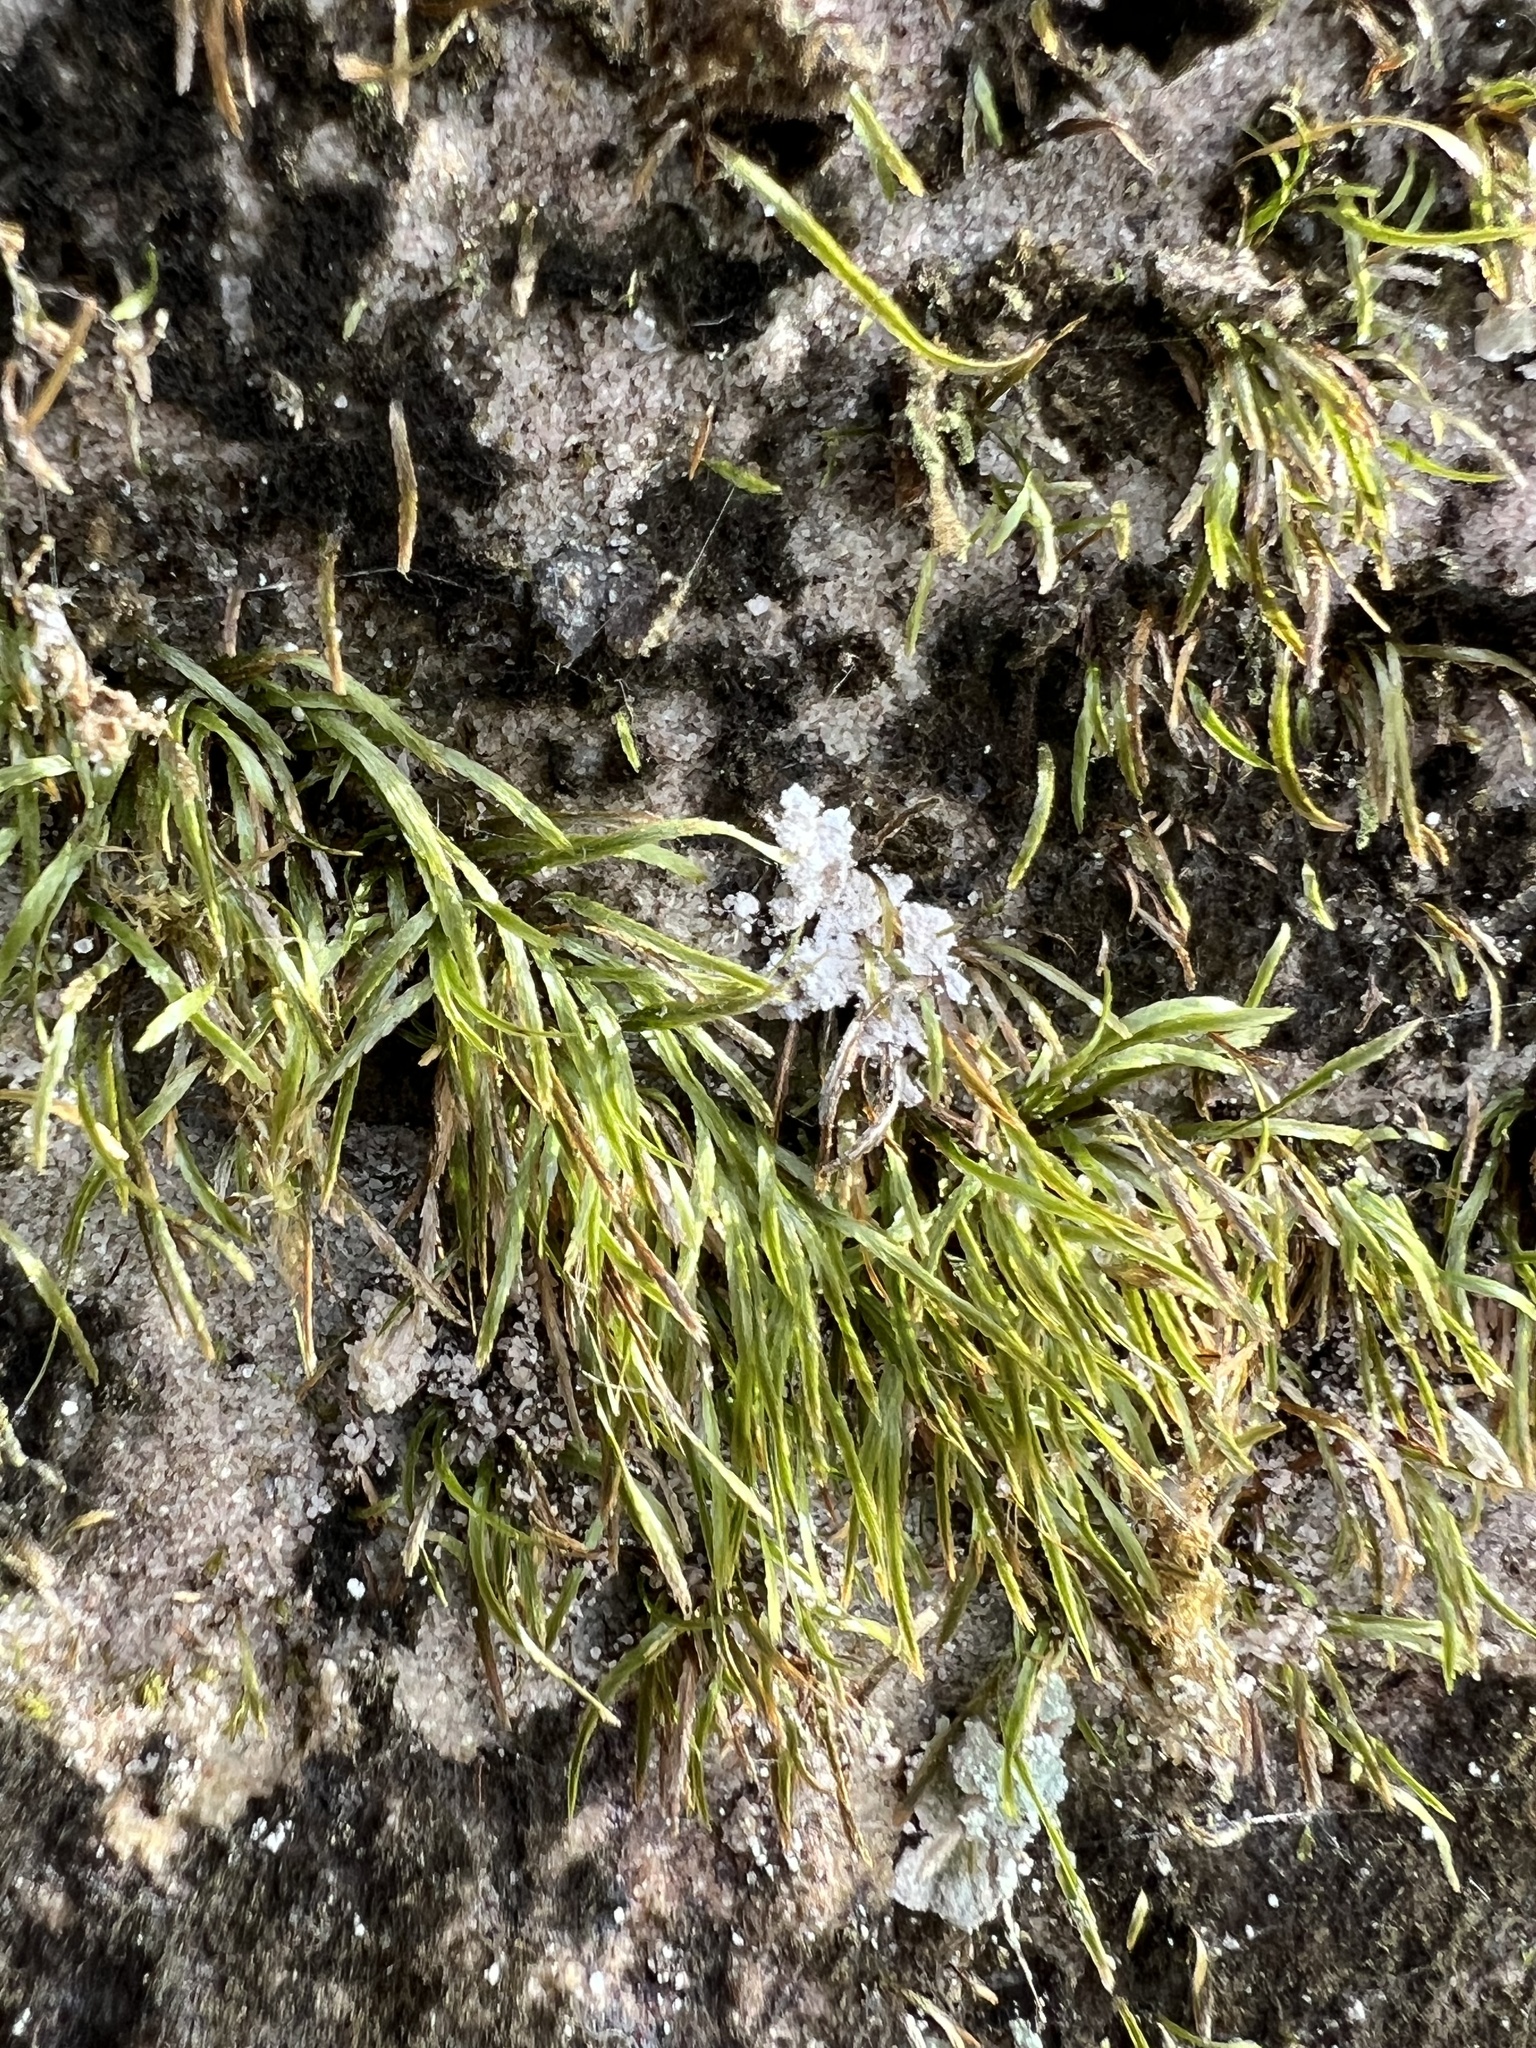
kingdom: Plantae
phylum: Bryophyta
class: Bryopsida
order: Bryoxiphiales
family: Bryoxiphiaceae
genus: Bryoxiphium
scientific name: Bryoxiphium norvegicum
